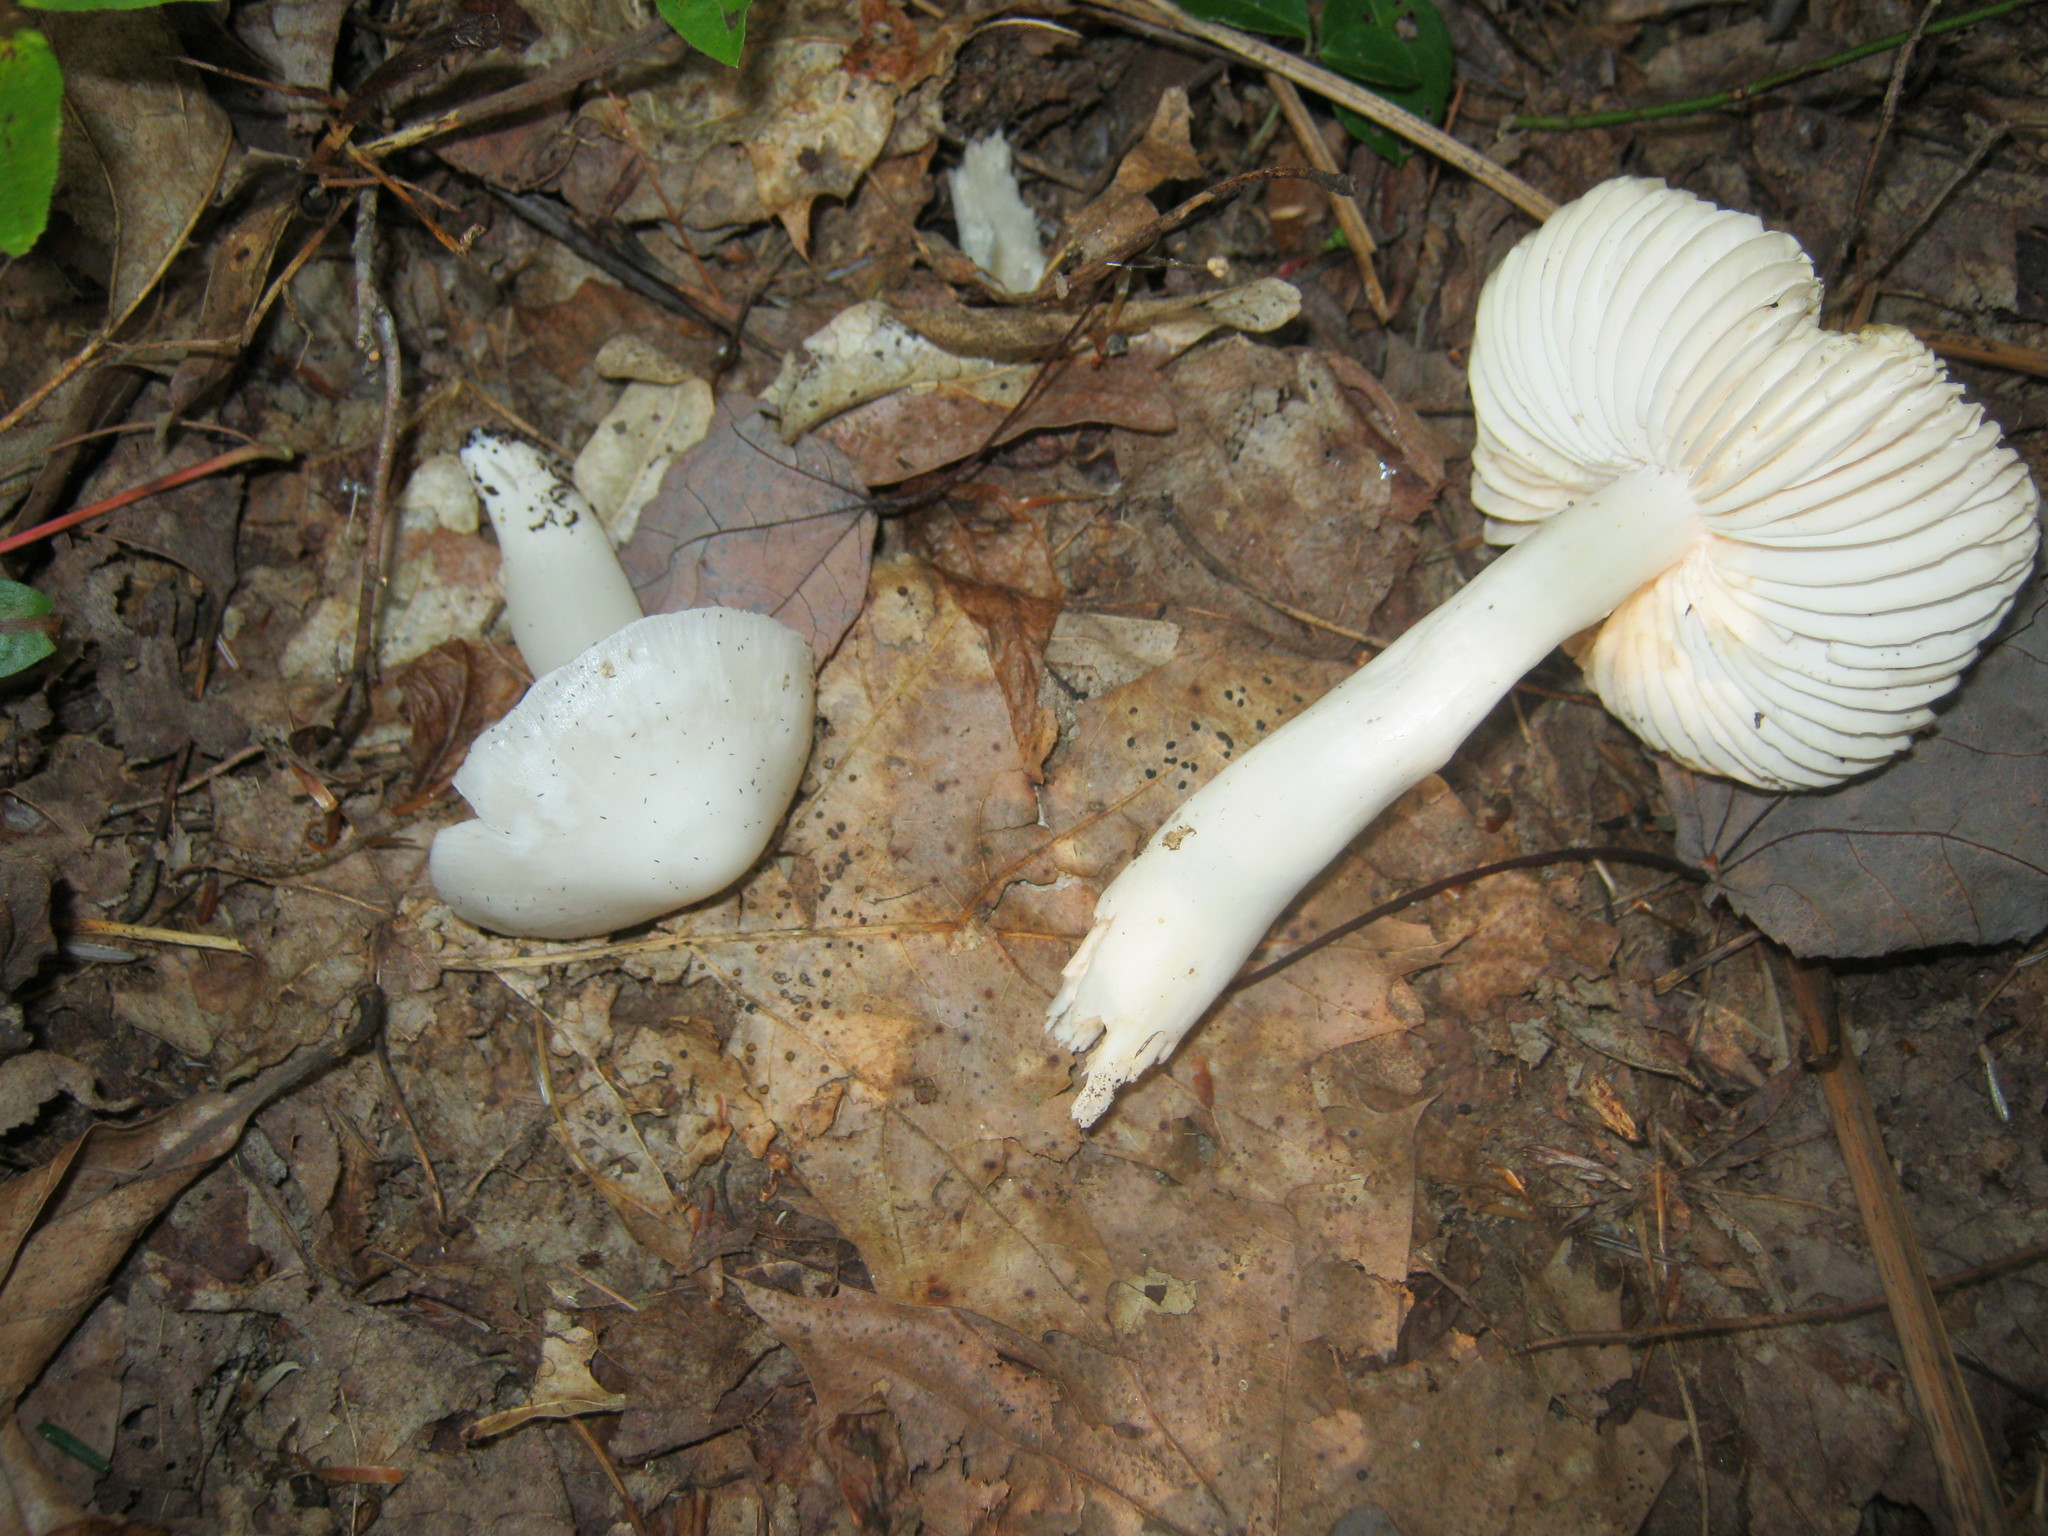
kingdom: Fungi
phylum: Basidiomycota
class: Agaricomycetes
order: Agaricales
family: Hygrophoraceae
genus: Humidicutis
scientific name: Humidicutis pura
